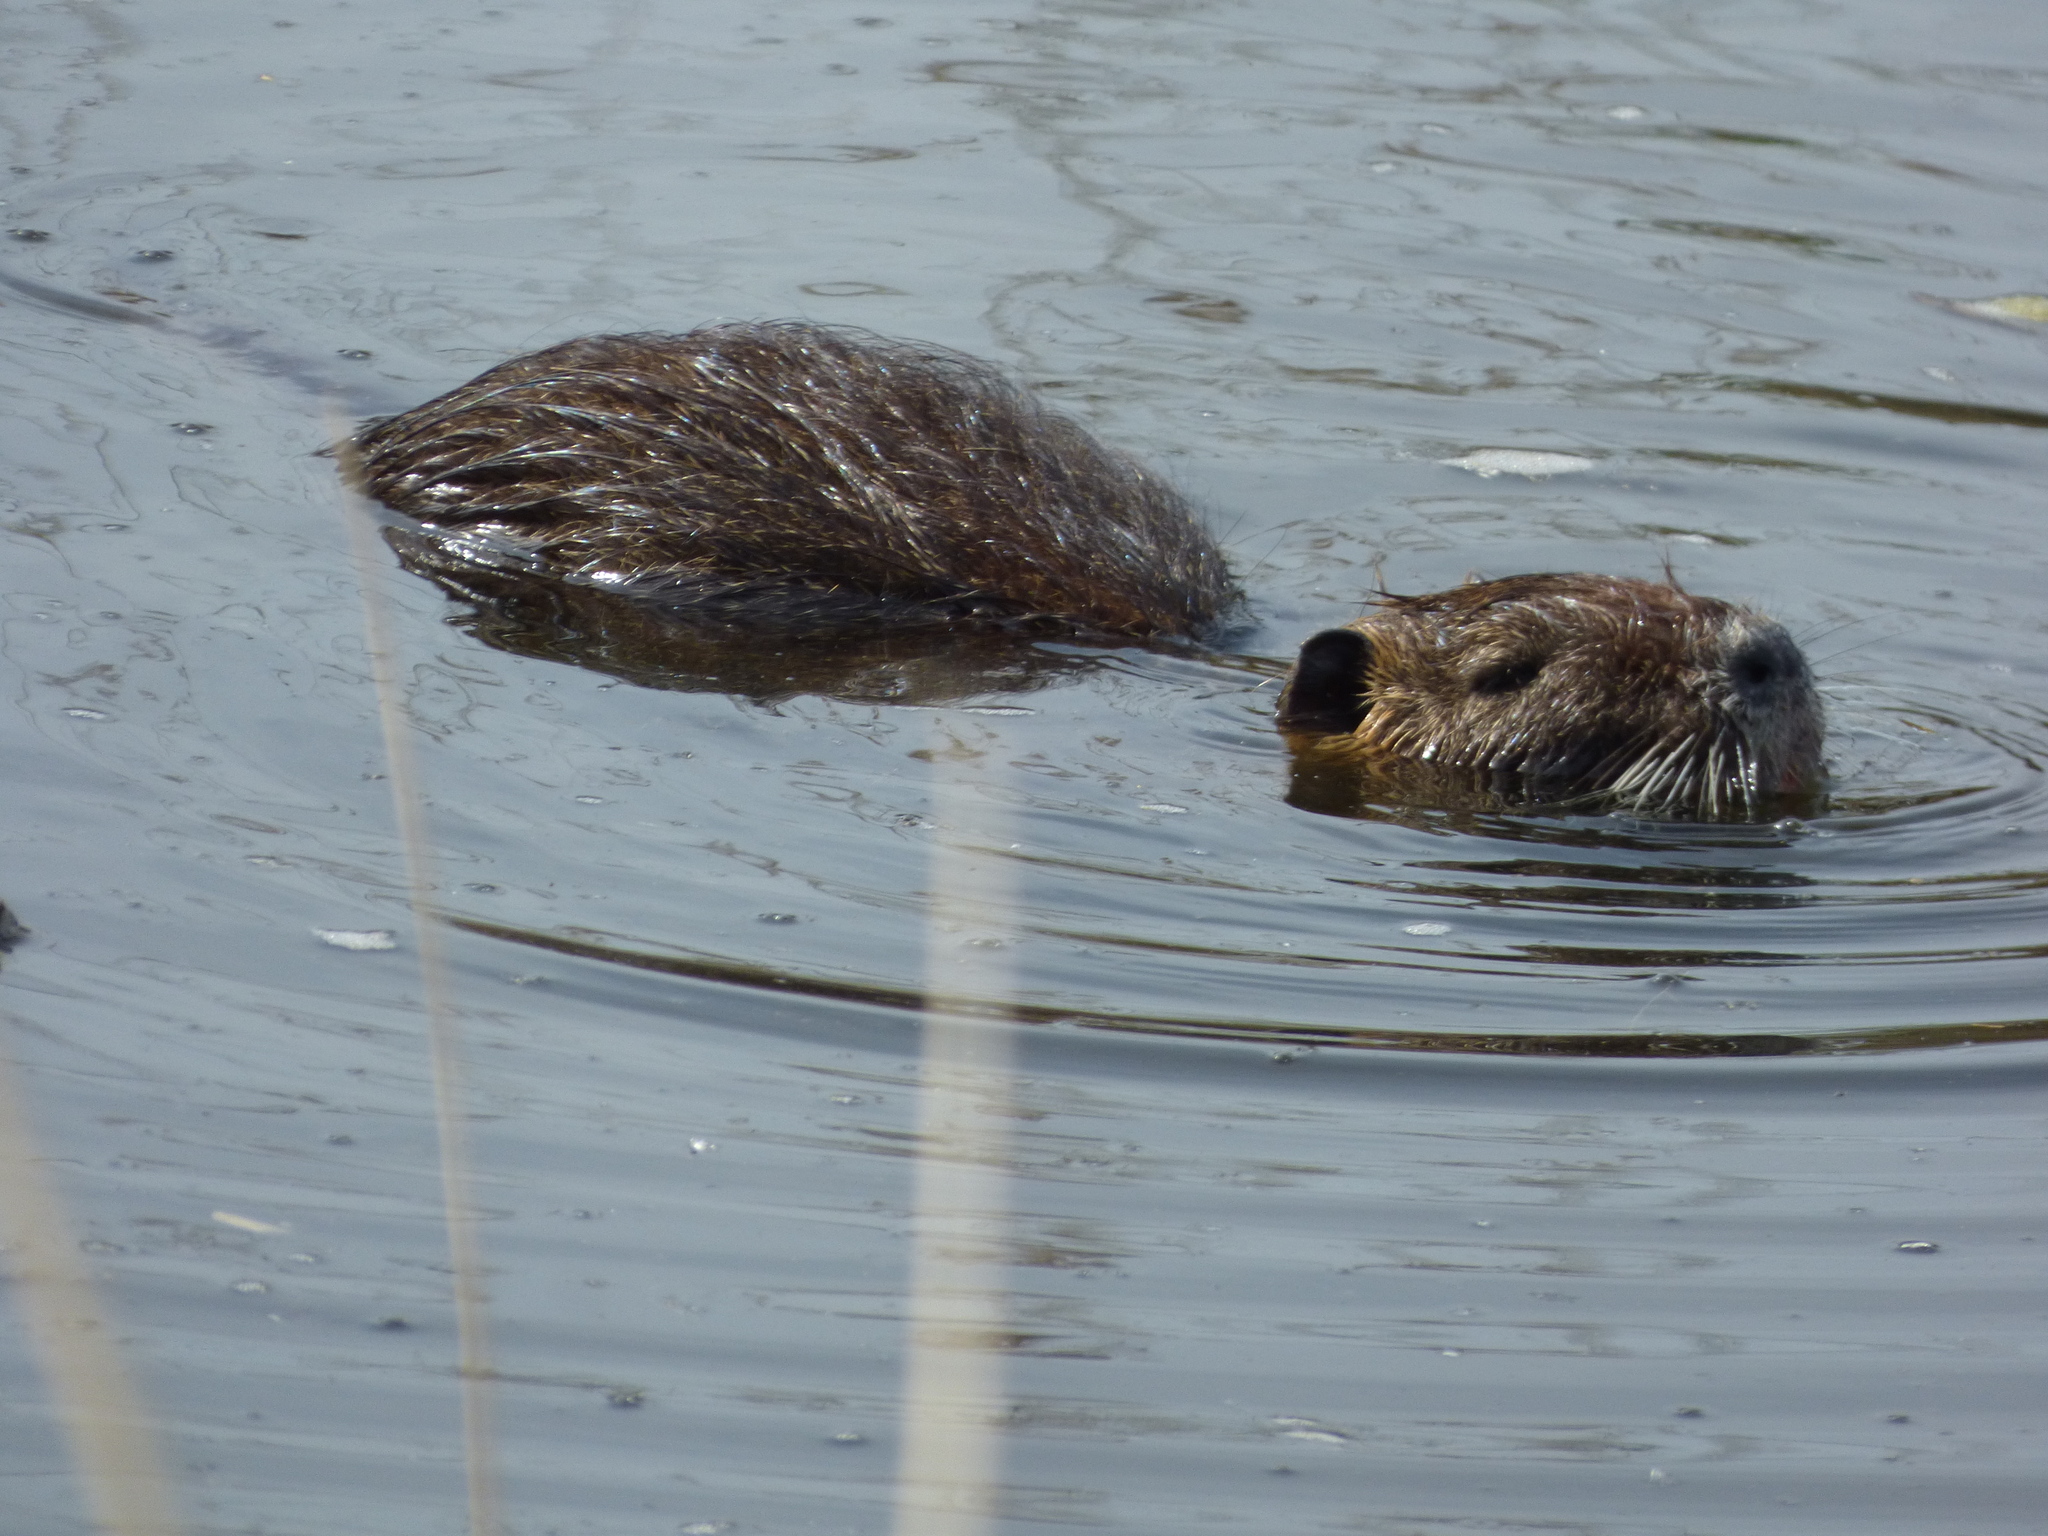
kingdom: Animalia
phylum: Chordata
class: Mammalia
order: Rodentia
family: Myocastoridae
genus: Myocastor
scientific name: Myocastor coypus
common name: Coypu
